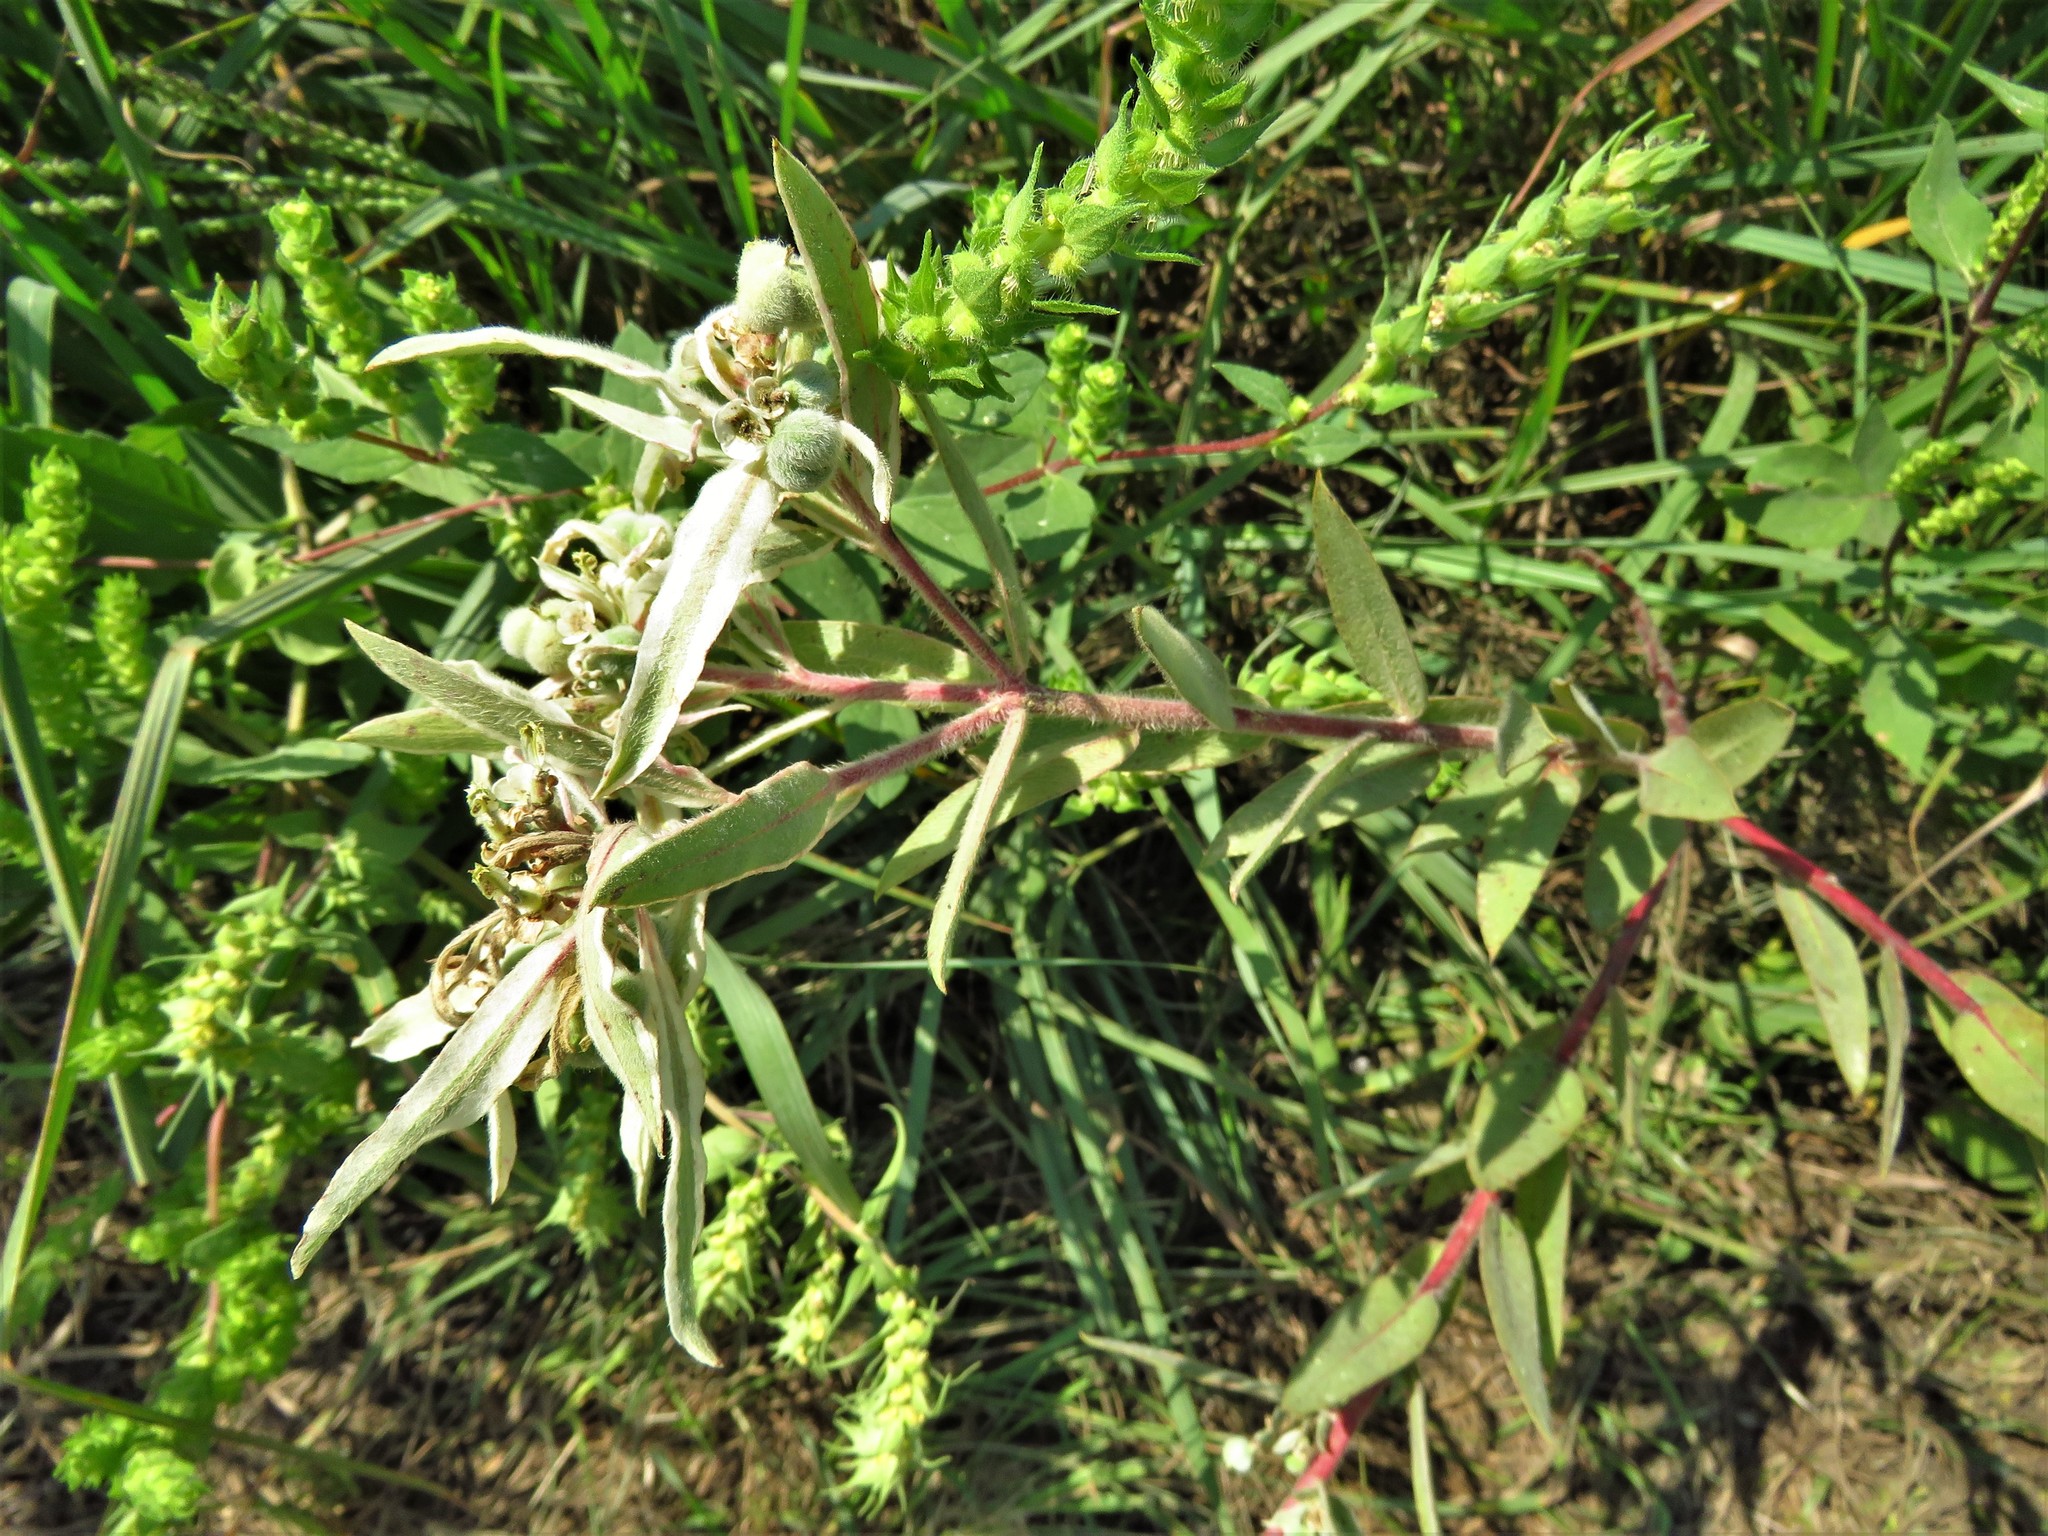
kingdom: Plantae
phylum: Tracheophyta
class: Magnoliopsida
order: Malpighiales
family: Euphorbiaceae
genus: Euphorbia
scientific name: Euphorbia bicolor
